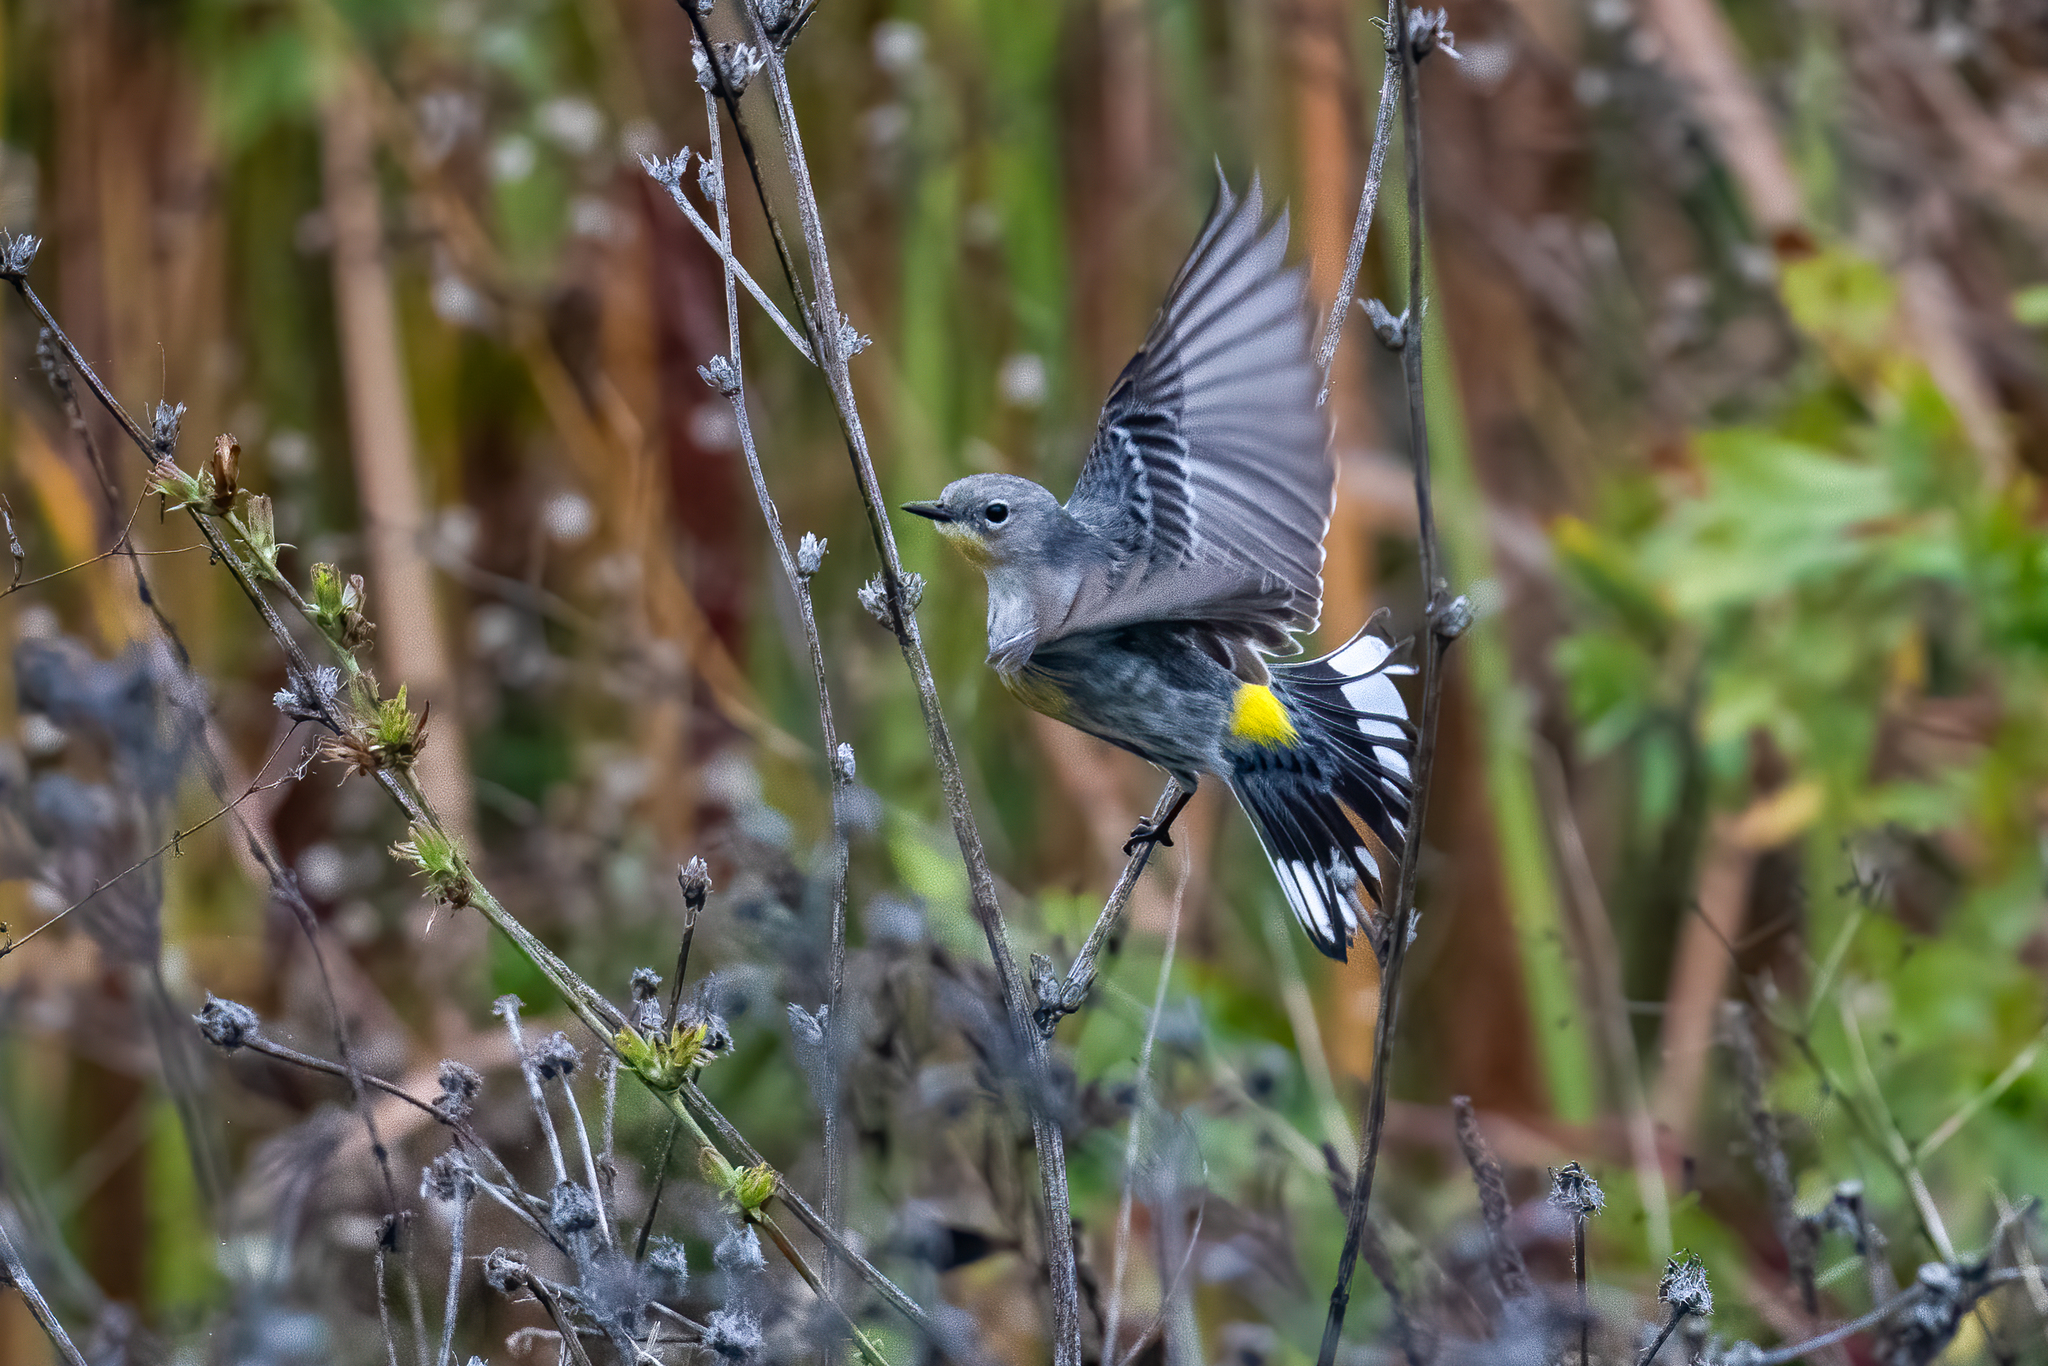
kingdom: Animalia
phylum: Chordata
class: Aves
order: Passeriformes
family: Parulidae
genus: Setophaga
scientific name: Setophaga coronata
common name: Myrtle warbler
